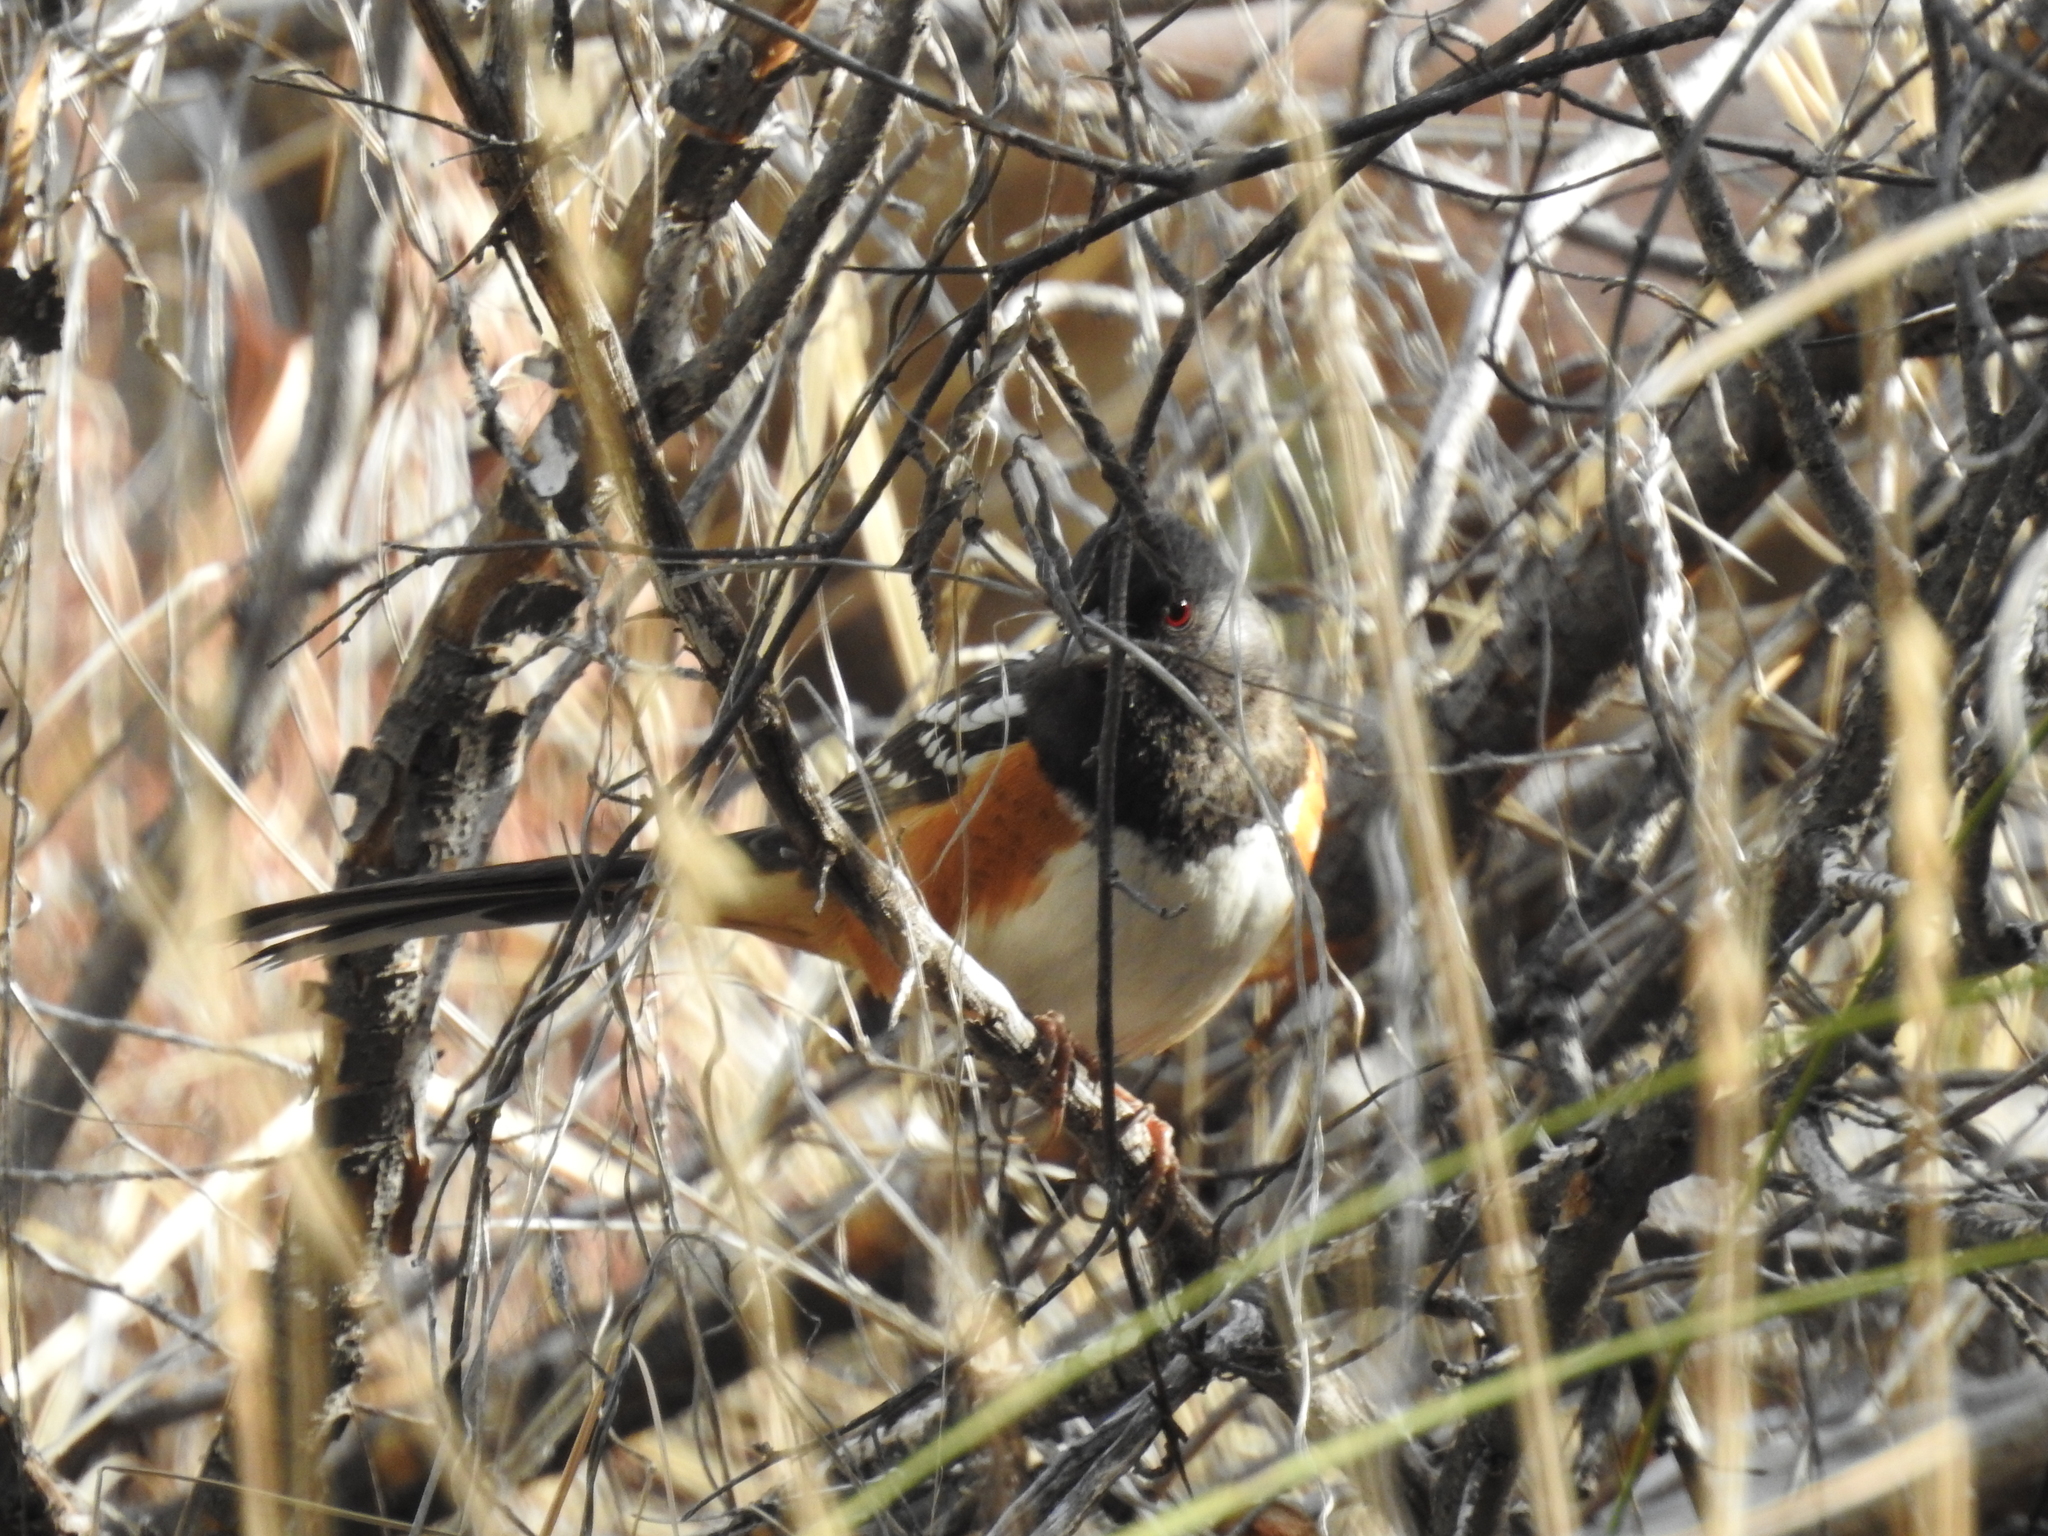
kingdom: Animalia
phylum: Chordata
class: Aves
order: Passeriformes
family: Passerellidae
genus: Pipilo
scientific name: Pipilo maculatus
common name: Spotted towhee
